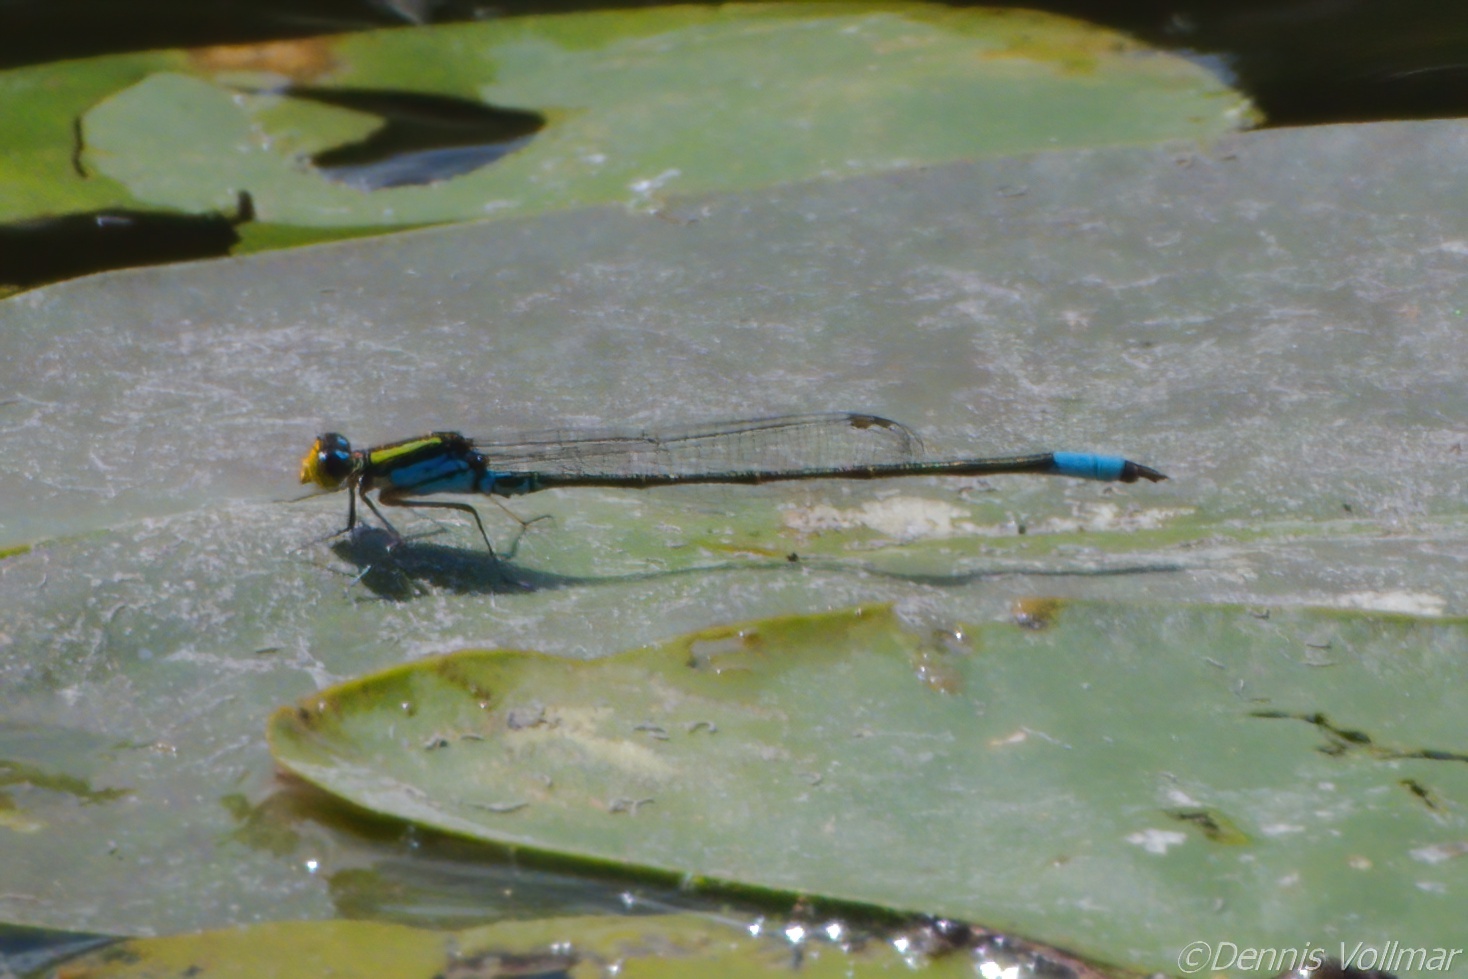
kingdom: Animalia
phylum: Arthropoda
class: Insecta
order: Odonata
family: Coenagrionidae
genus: Neoerythromma
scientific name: Neoerythromma cultellatum
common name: Caribbean yellowface
